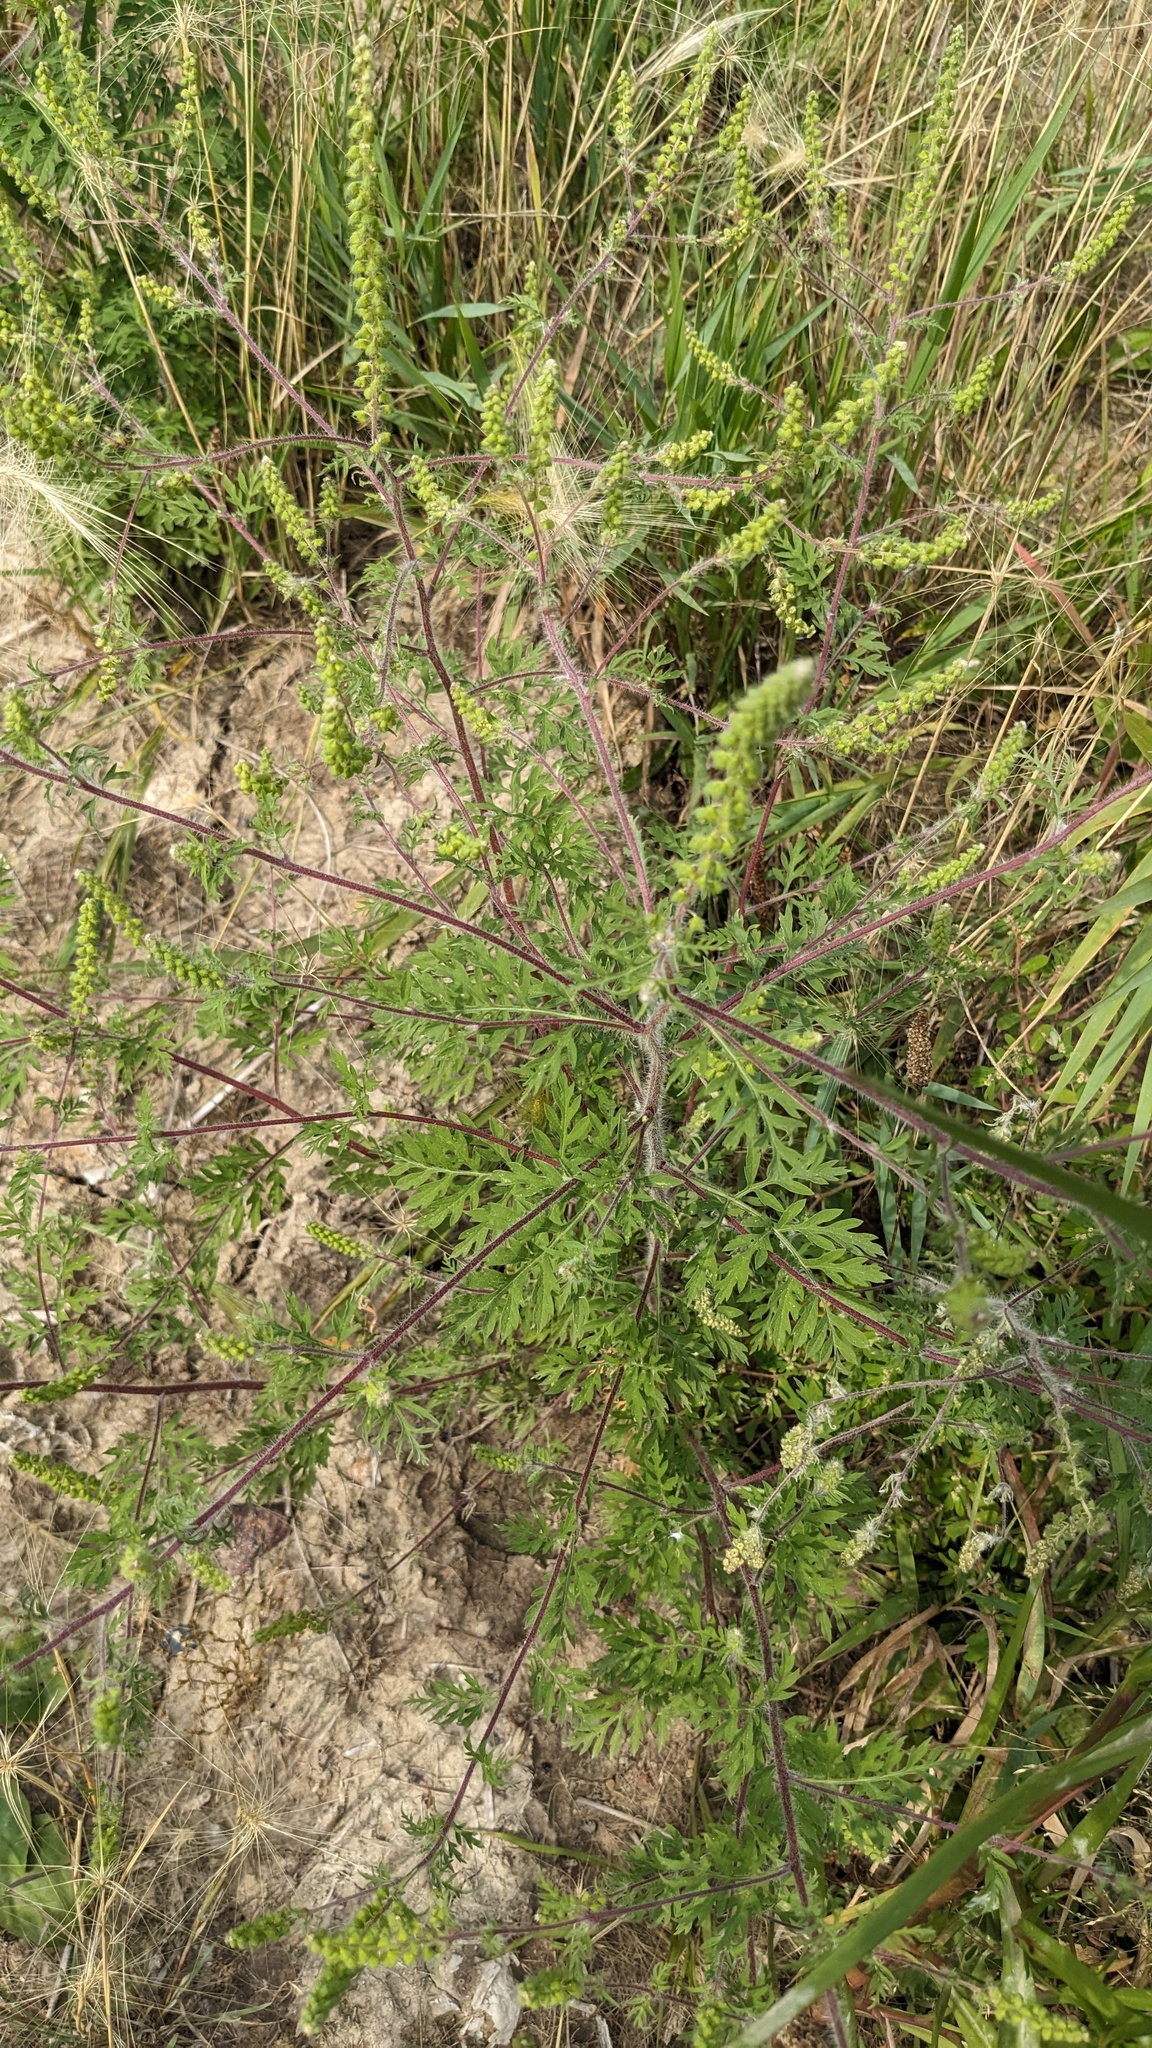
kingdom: Plantae
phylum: Tracheophyta
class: Magnoliopsida
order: Asterales
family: Asteraceae
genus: Ambrosia
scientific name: Ambrosia artemisiifolia
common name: Annual ragweed
